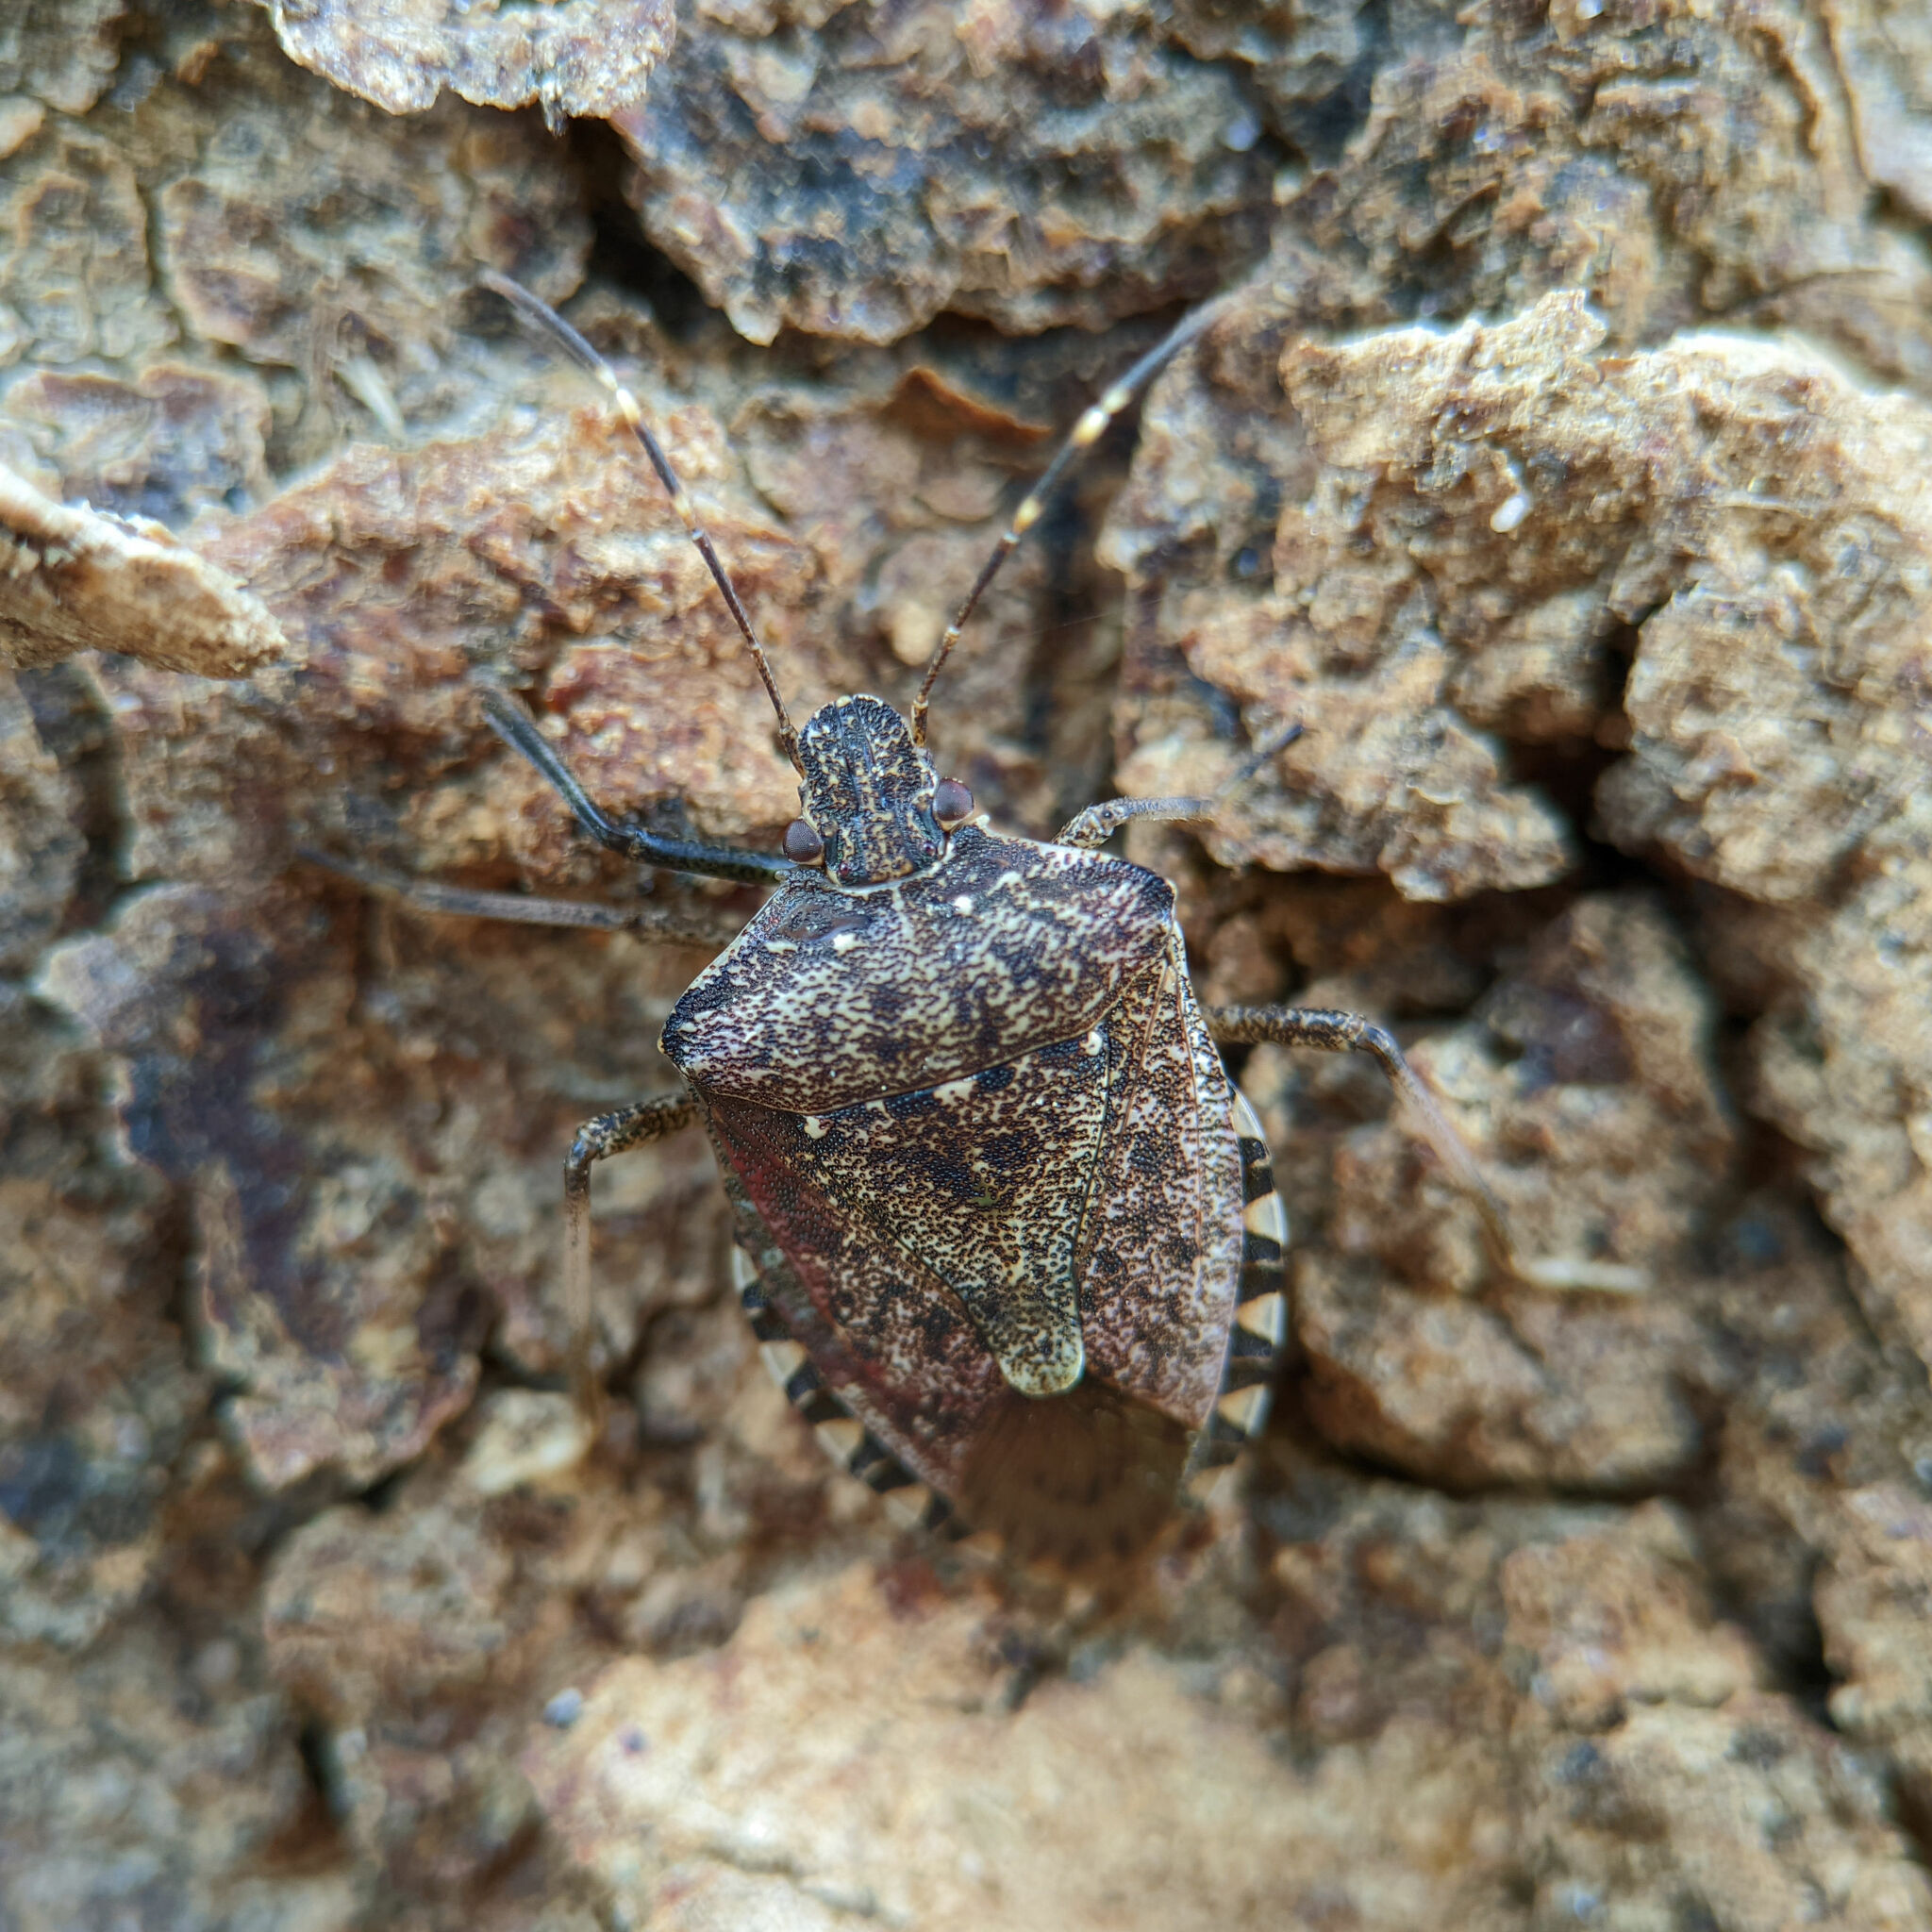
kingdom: Animalia
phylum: Arthropoda
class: Insecta
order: Hemiptera
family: Pentatomidae
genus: Halyomorpha
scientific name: Halyomorpha halys
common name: Brown marmorated stink bug
